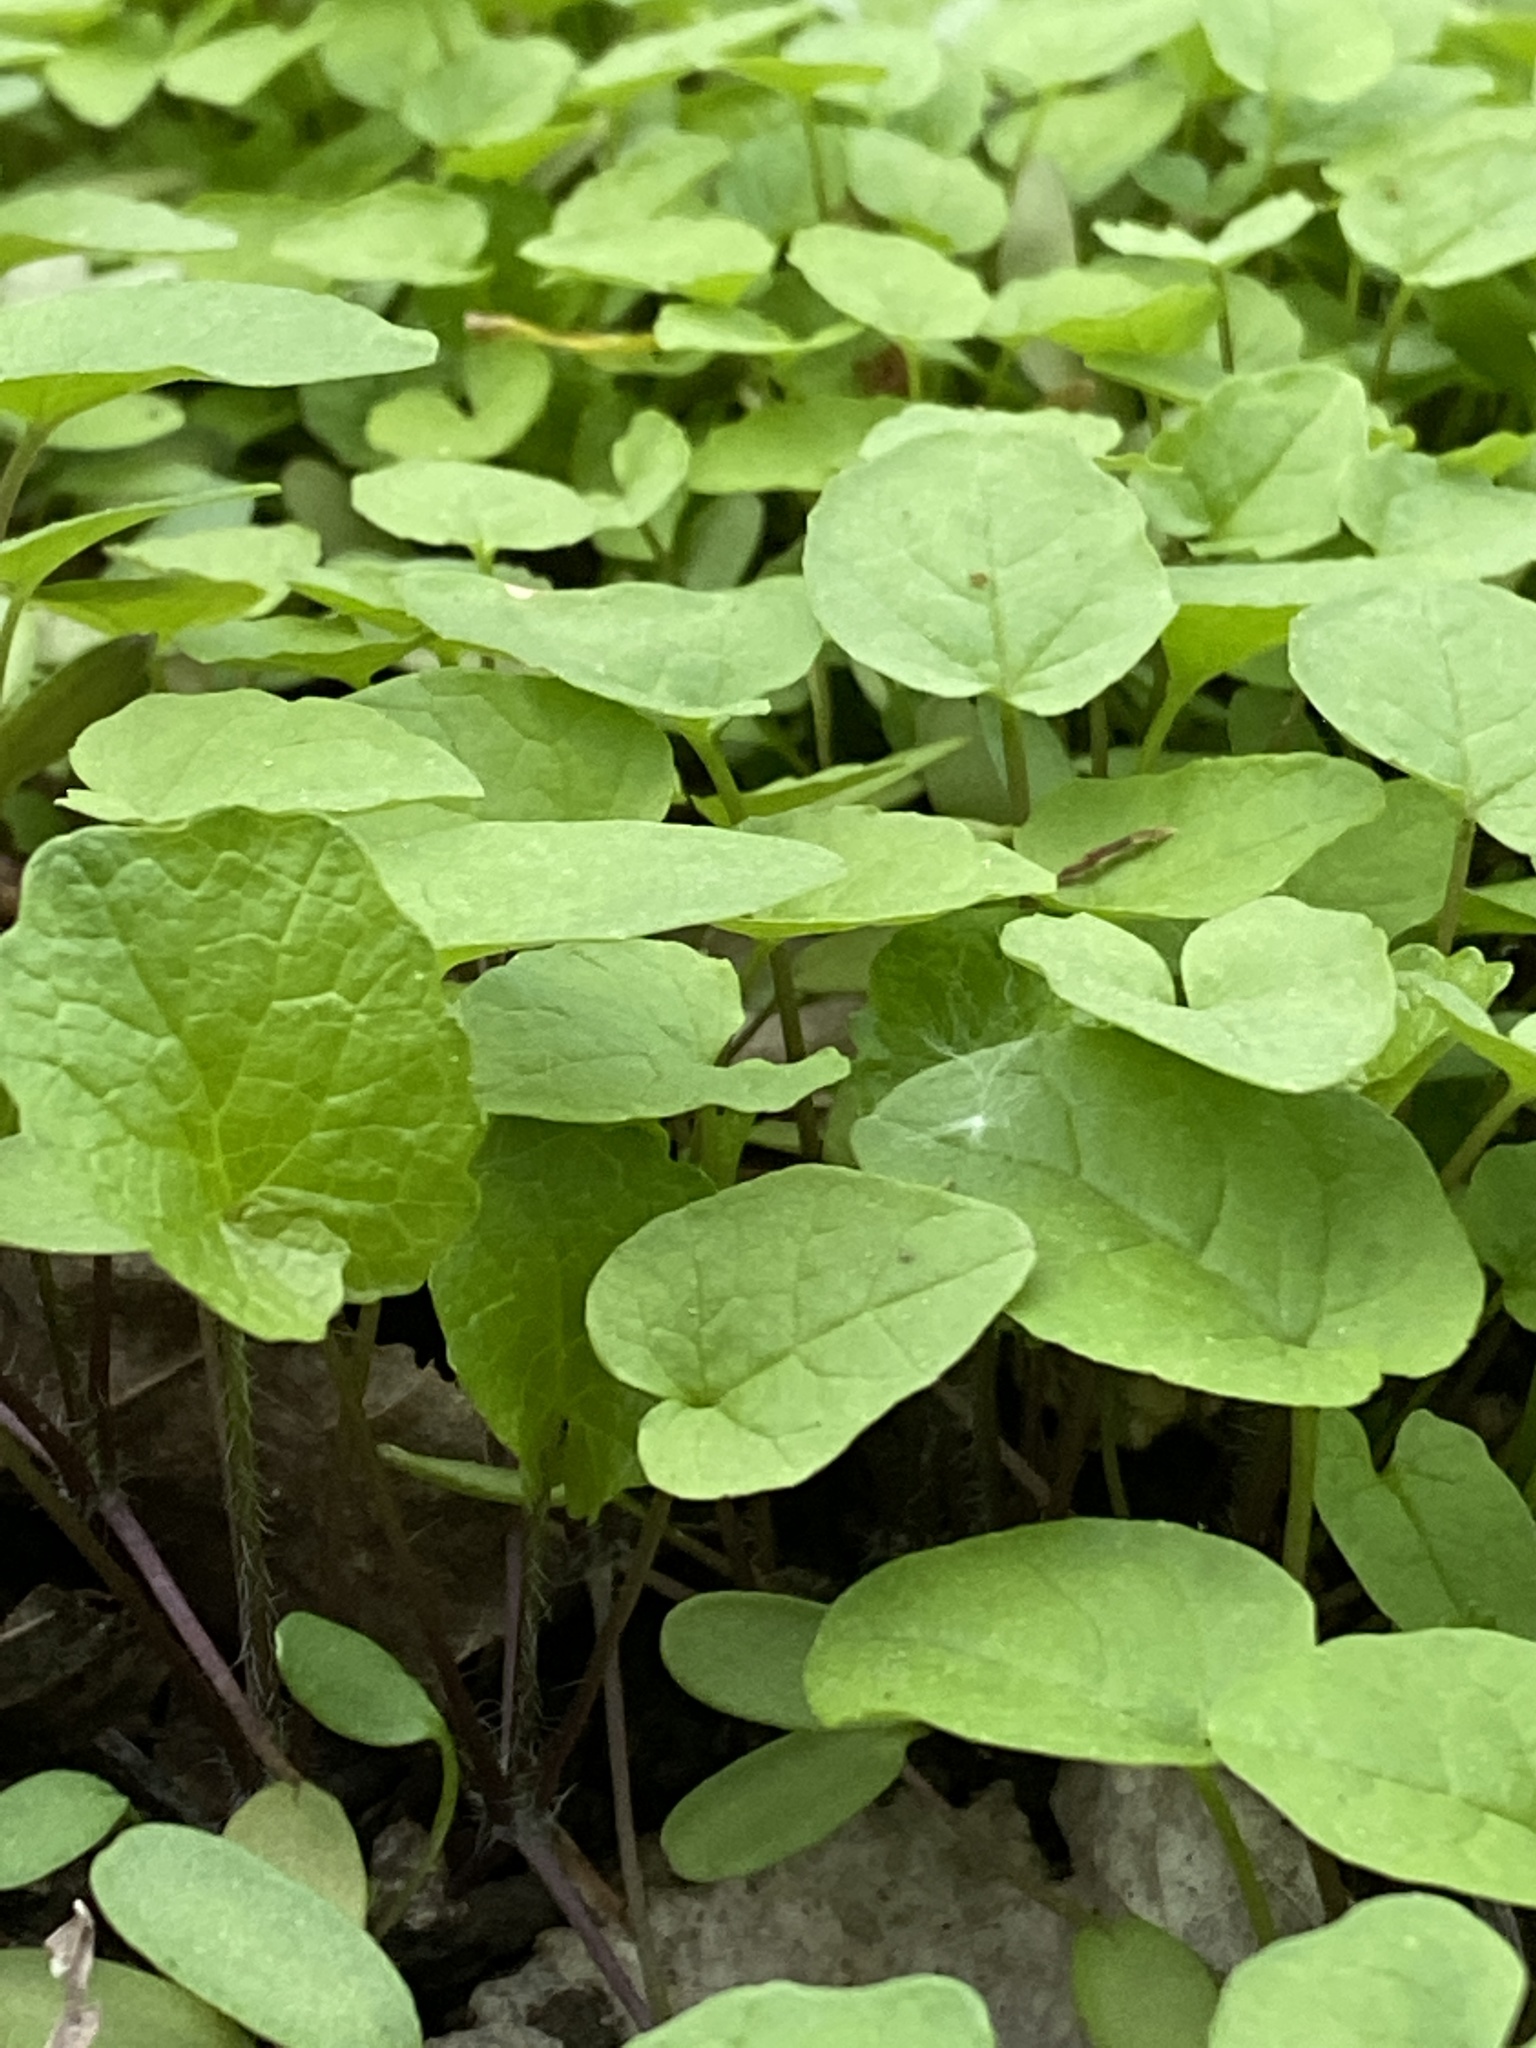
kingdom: Plantae
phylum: Tracheophyta
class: Magnoliopsida
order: Brassicales
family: Brassicaceae
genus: Alliaria
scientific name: Alliaria petiolata
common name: Garlic mustard
